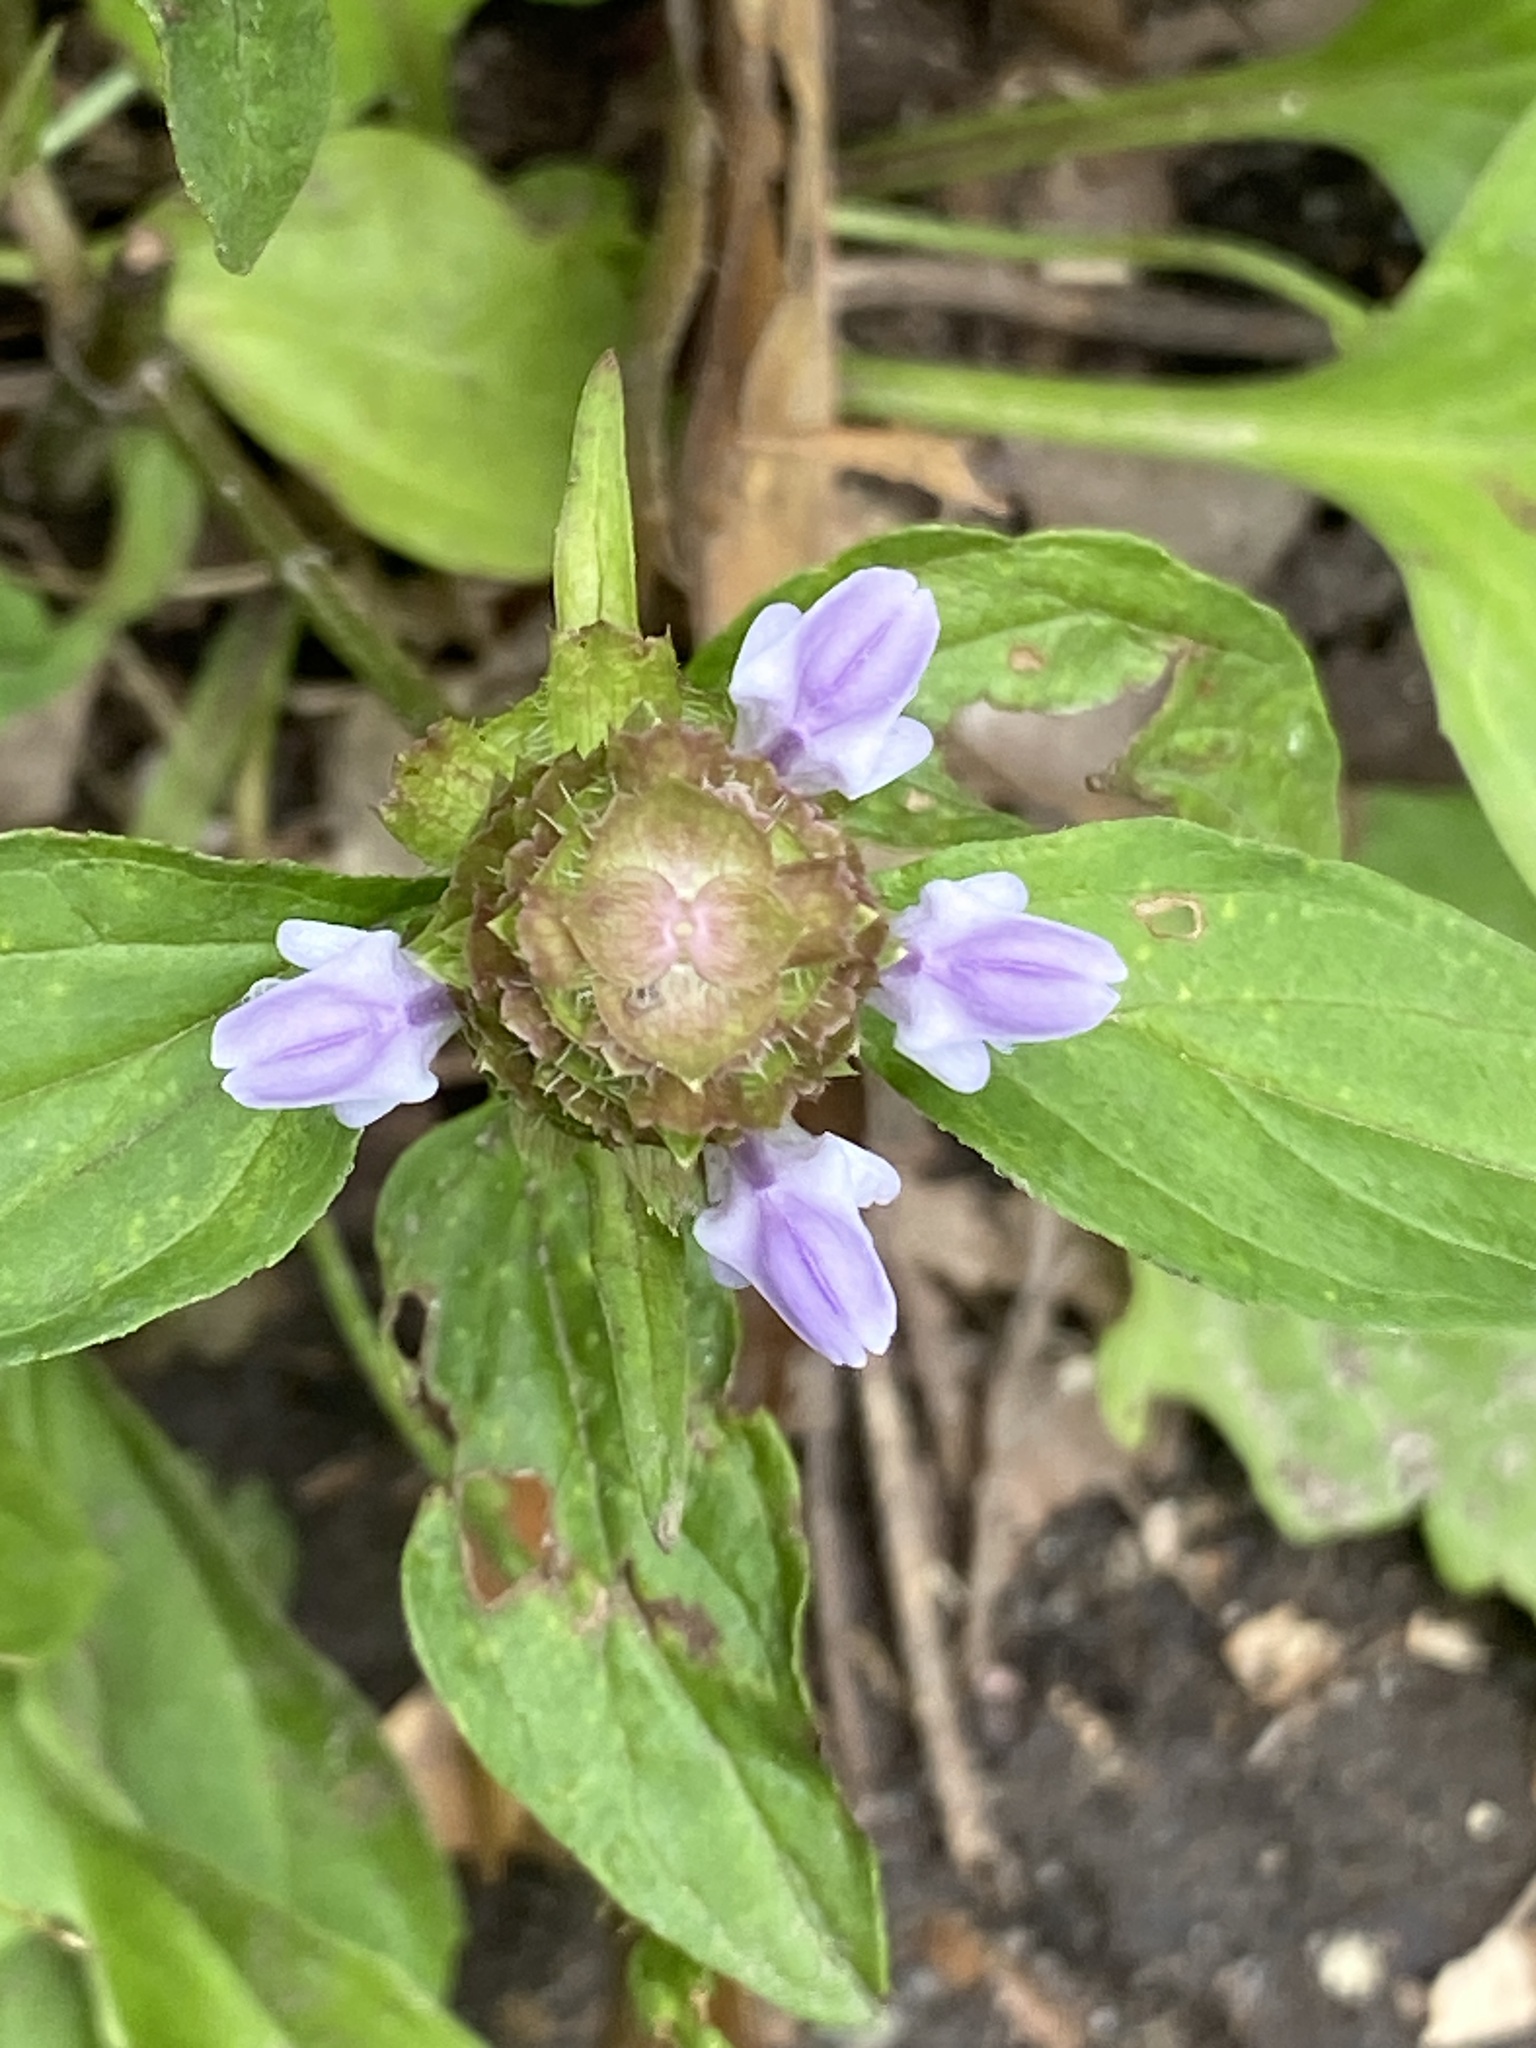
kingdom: Plantae
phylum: Tracheophyta
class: Magnoliopsida
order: Lamiales
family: Lamiaceae
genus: Prunella
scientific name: Prunella vulgaris
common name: Heal-all
